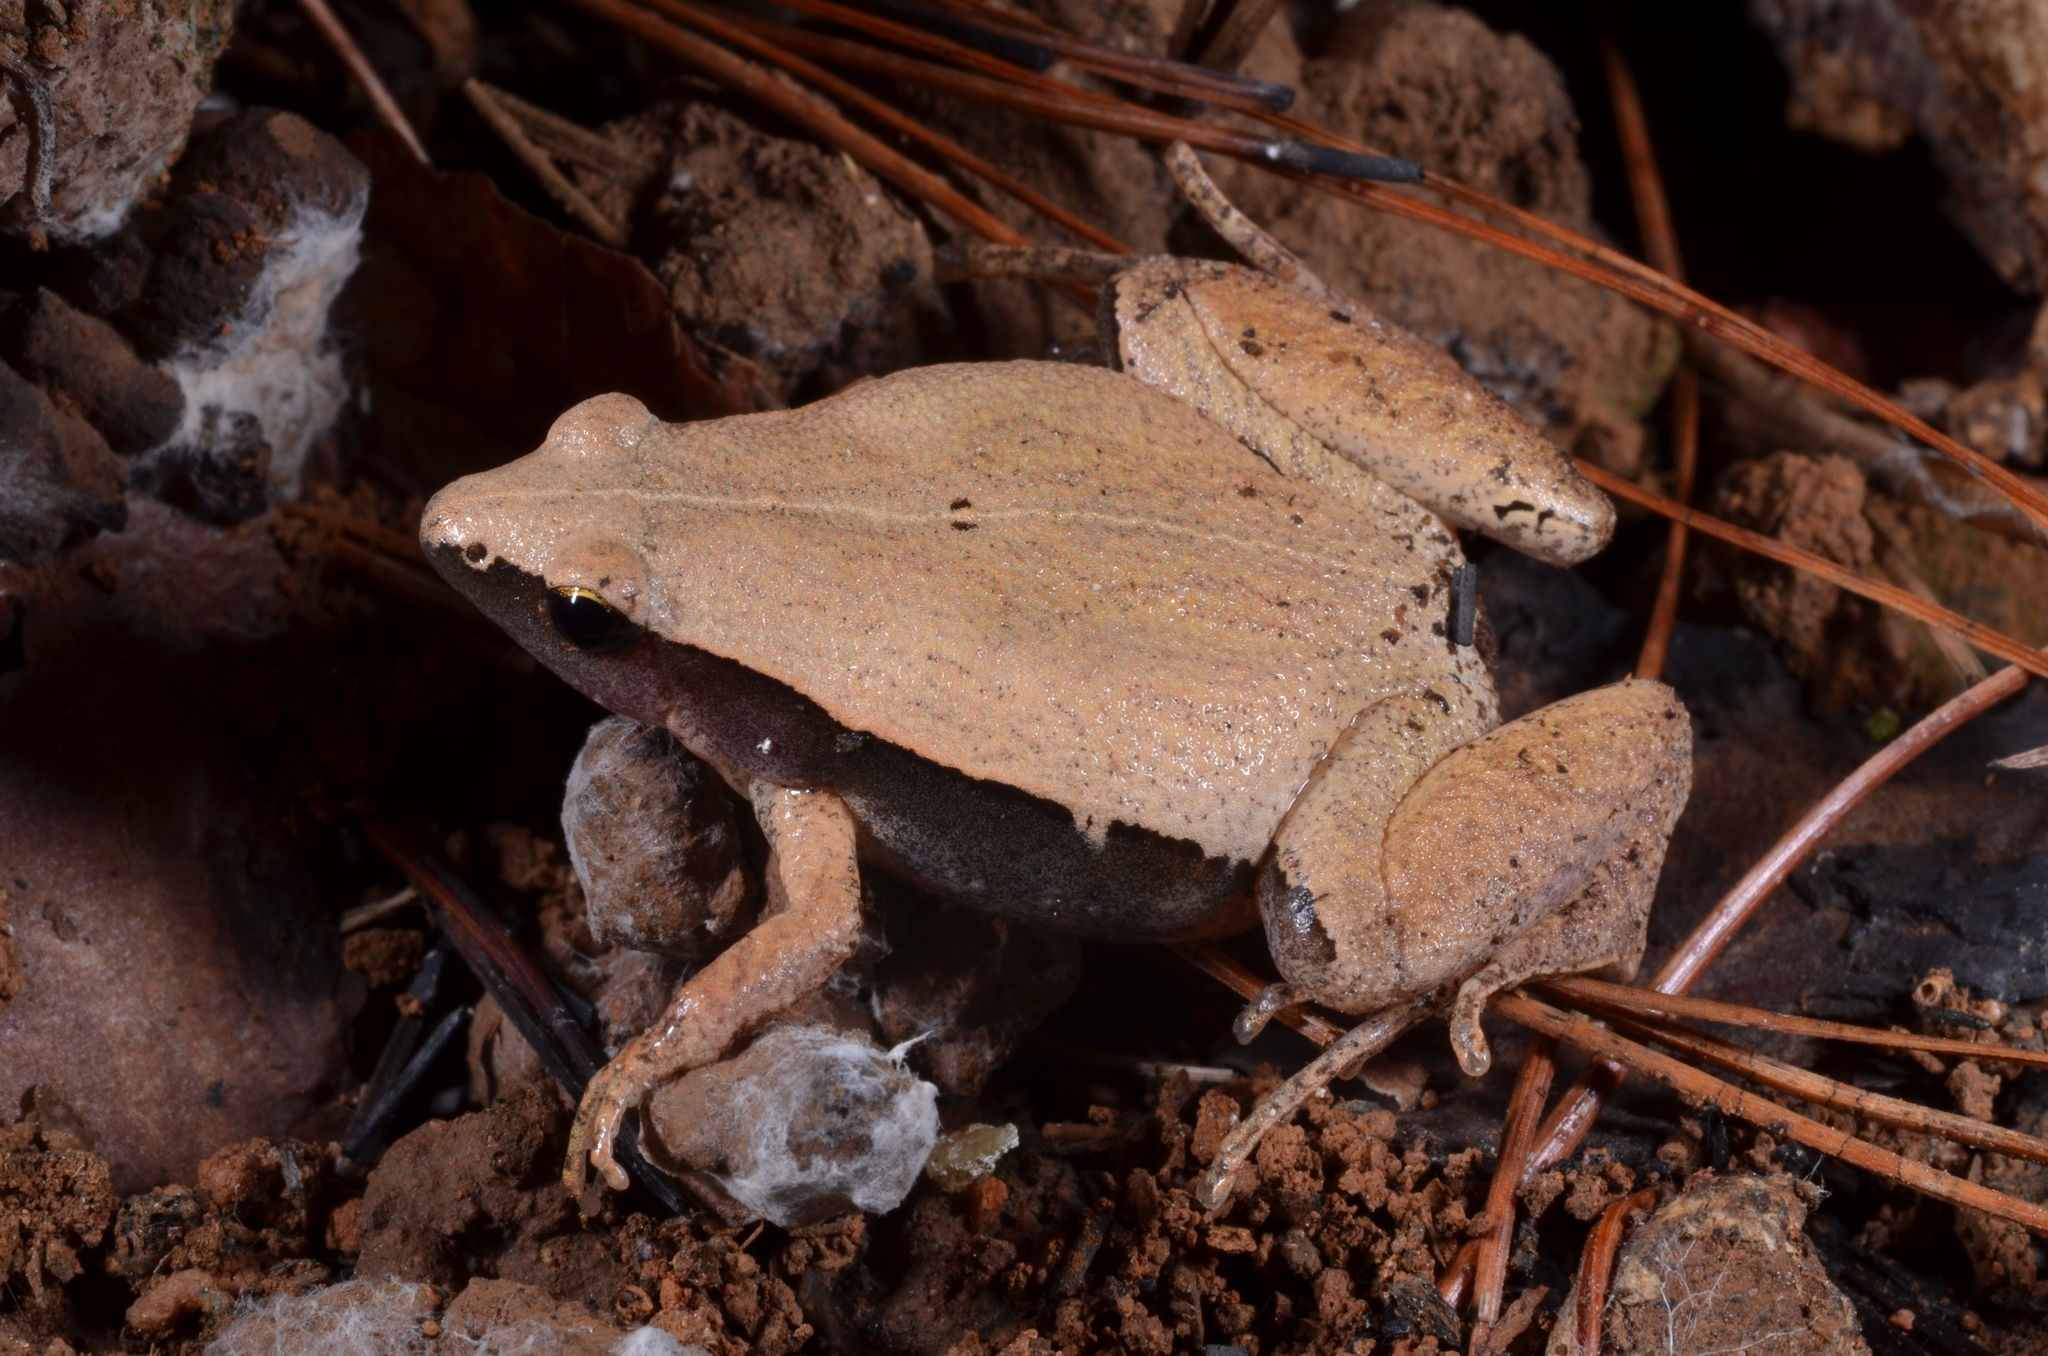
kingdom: Animalia
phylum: Chordata
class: Amphibia
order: Anura
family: Microhylidae
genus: Microhyla
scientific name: Microhyla heymonsi
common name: Taiwan rice frog,dark sided chorus frog
